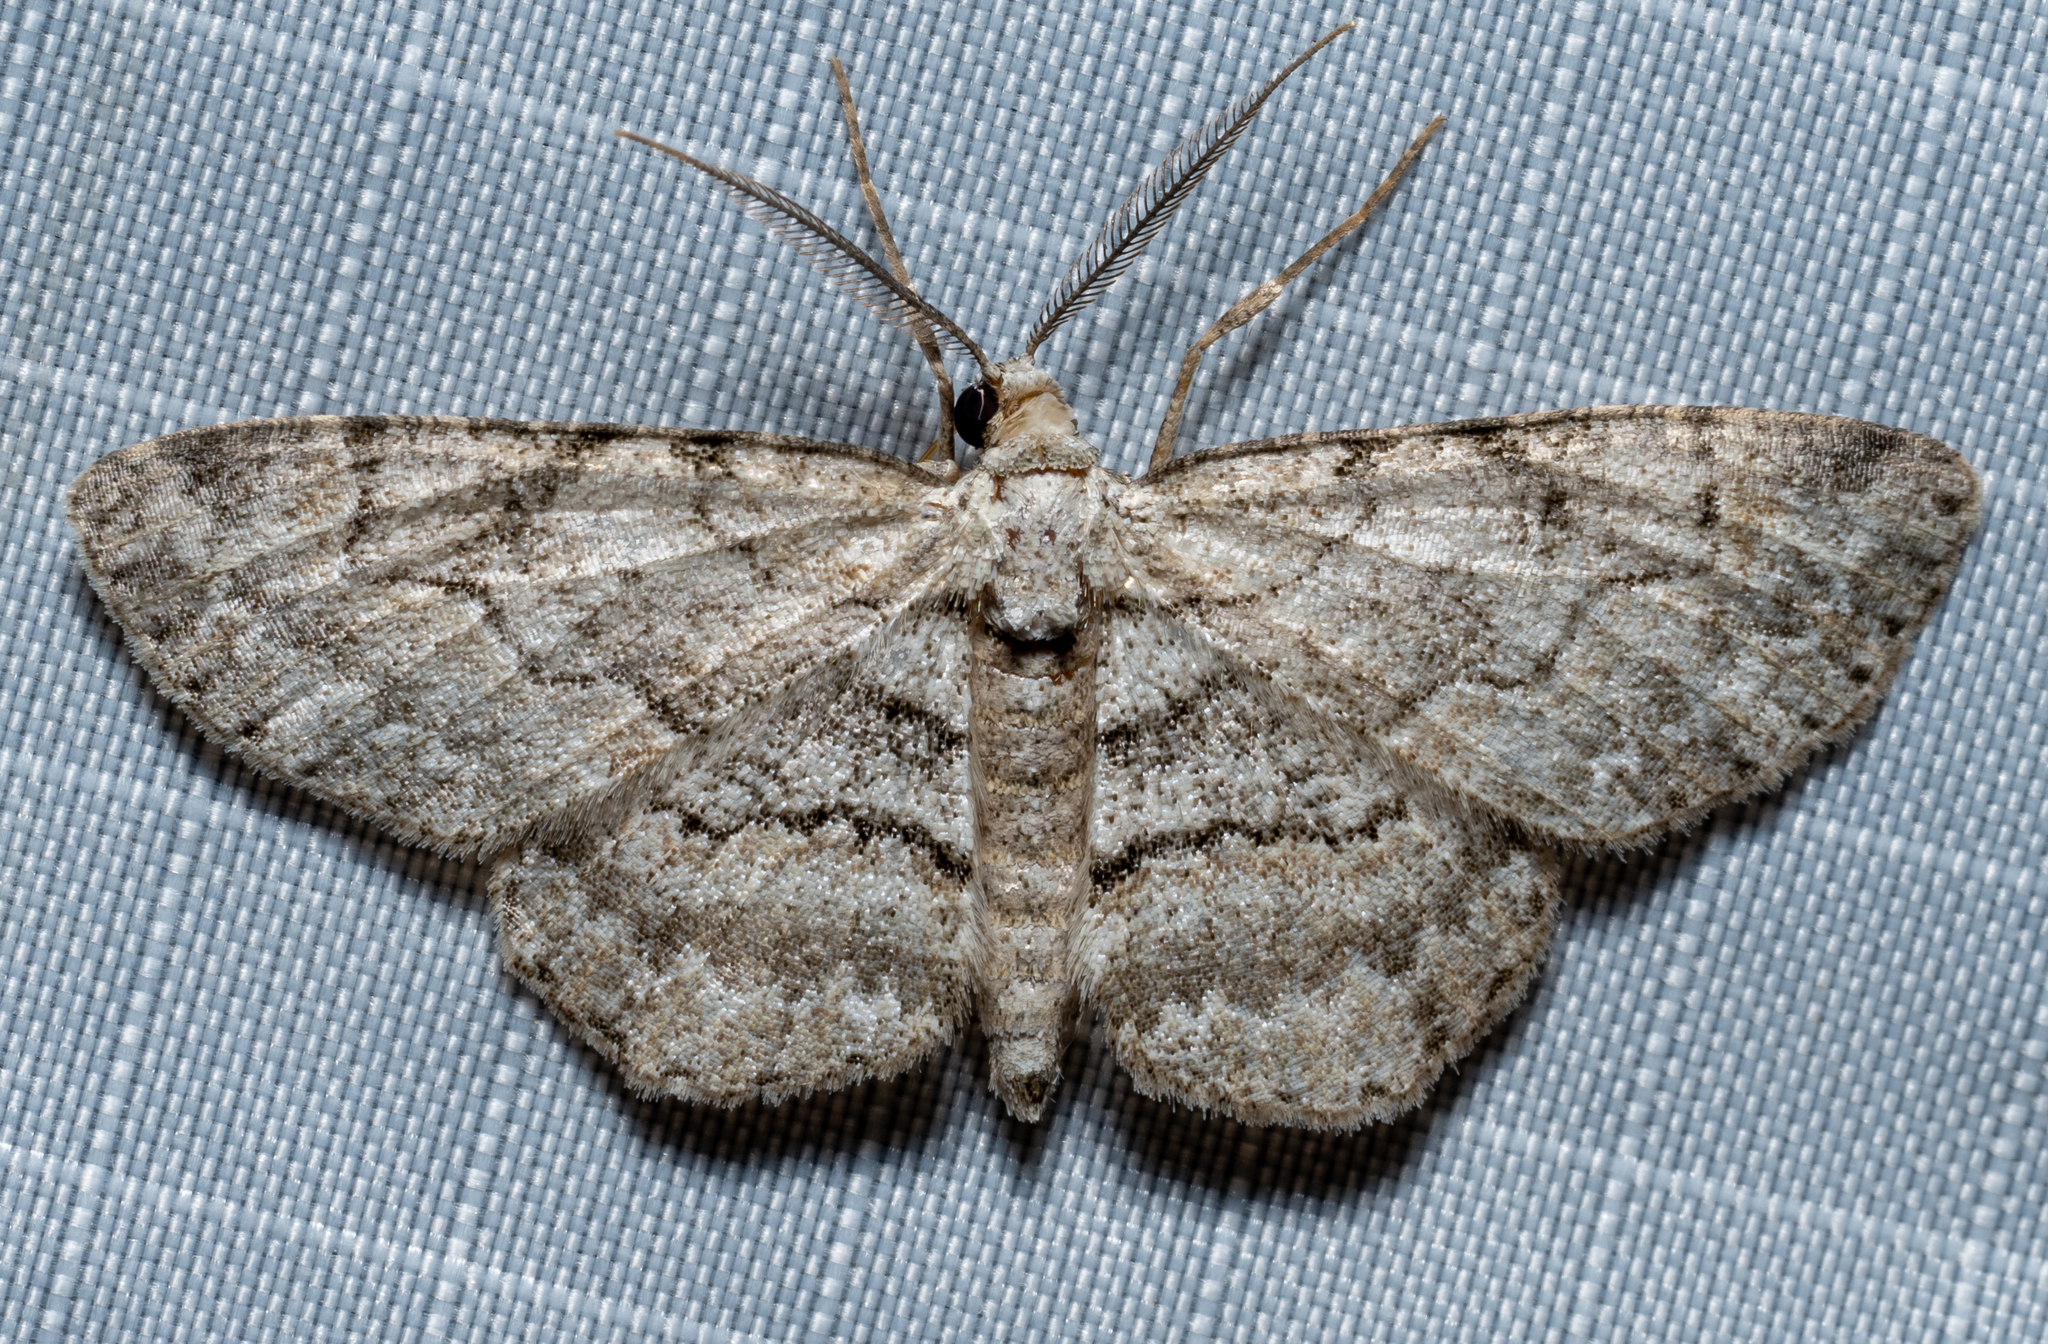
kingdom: Animalia
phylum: Arthropoda
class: Insecta
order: Lepidoptera
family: Geometridae
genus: Iridopsis
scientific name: Iridopsis ephyraria
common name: Pale-winged gray
